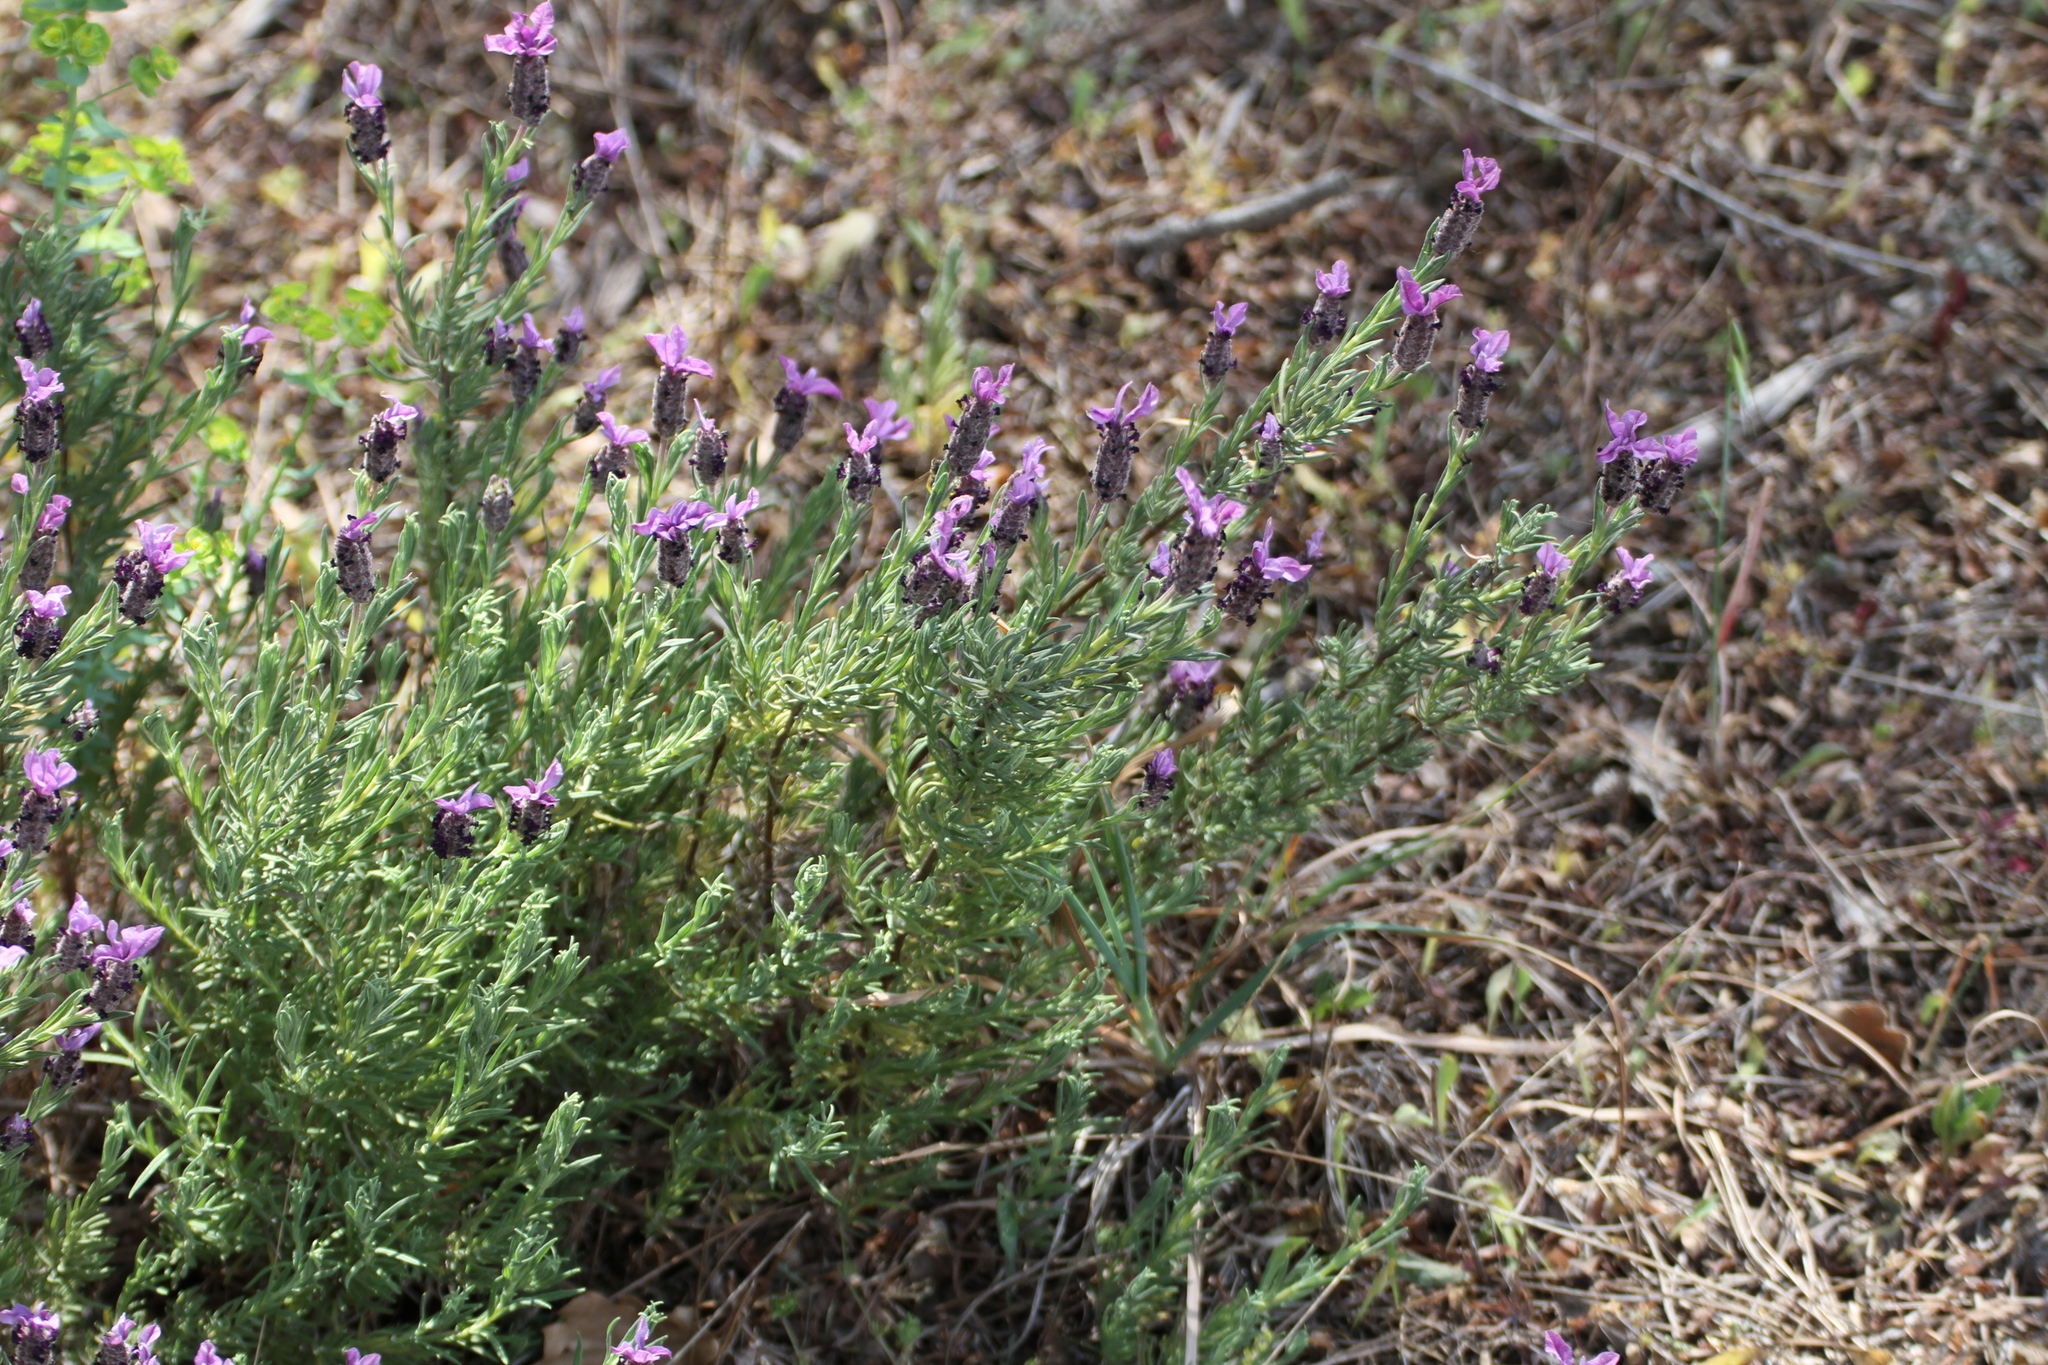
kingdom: Plantae
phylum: Tracheophyta
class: Magnoliopsida
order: Lamiales
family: Lamiaceae
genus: Lavandula
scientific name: Lavandula stoechas
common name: French lavender
